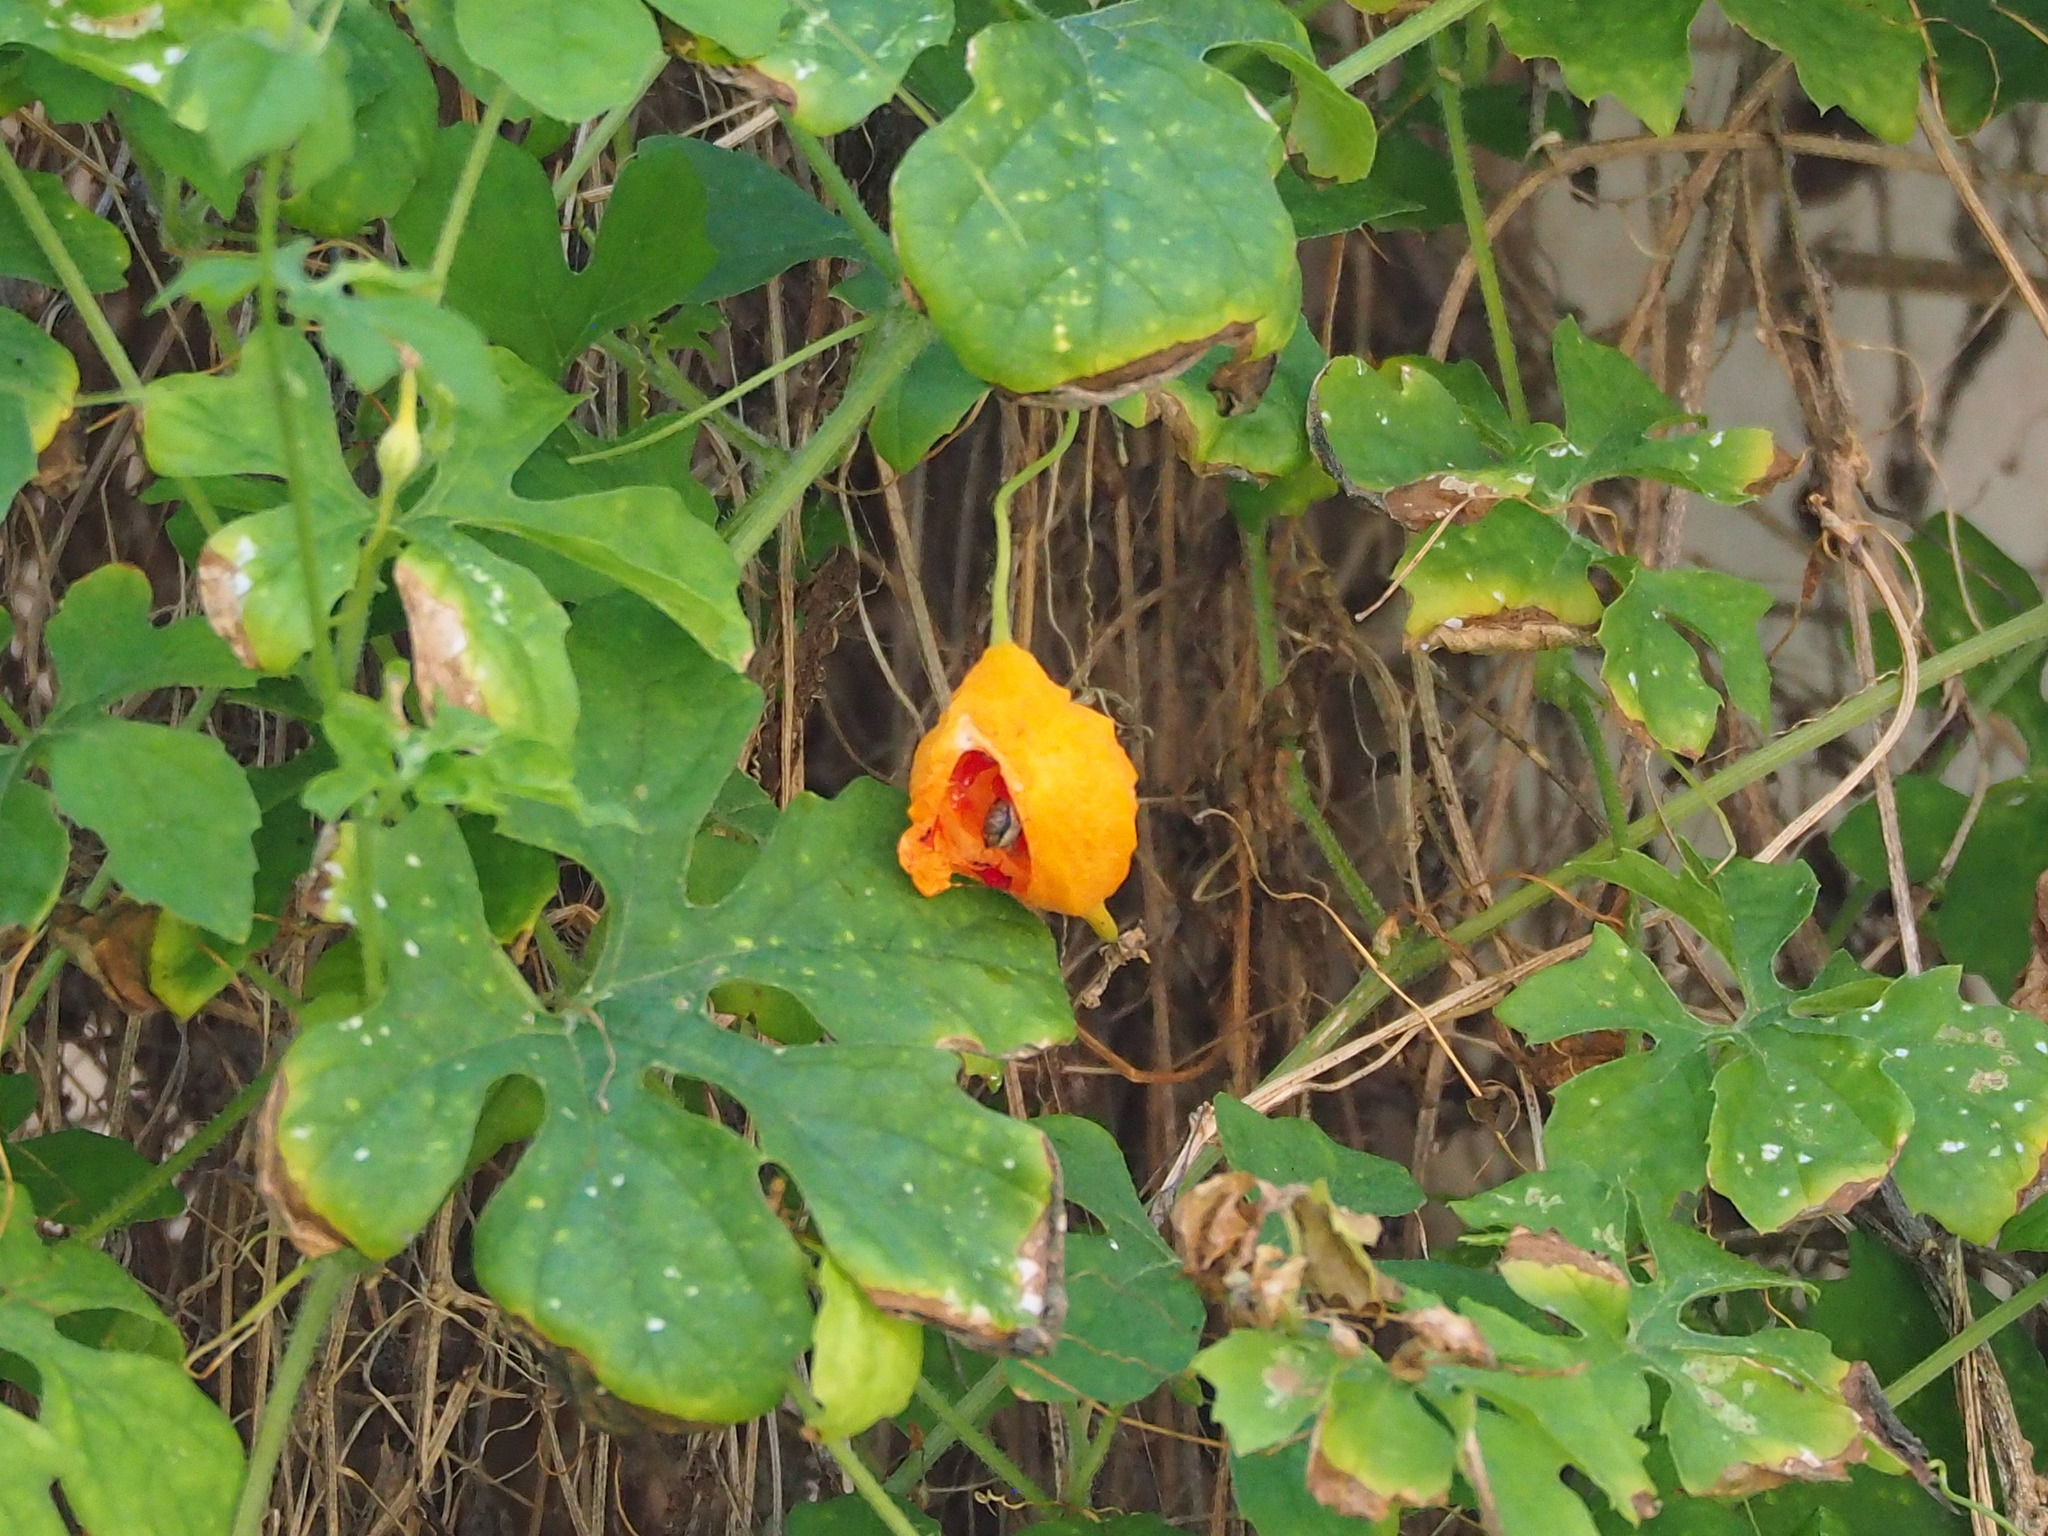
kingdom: Plantae
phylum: Tracheophyta
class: Magnoliopsida
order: Cucurbitales
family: Cucurbitaceae
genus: Momordica
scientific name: Momordica charantia
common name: Balsampear
